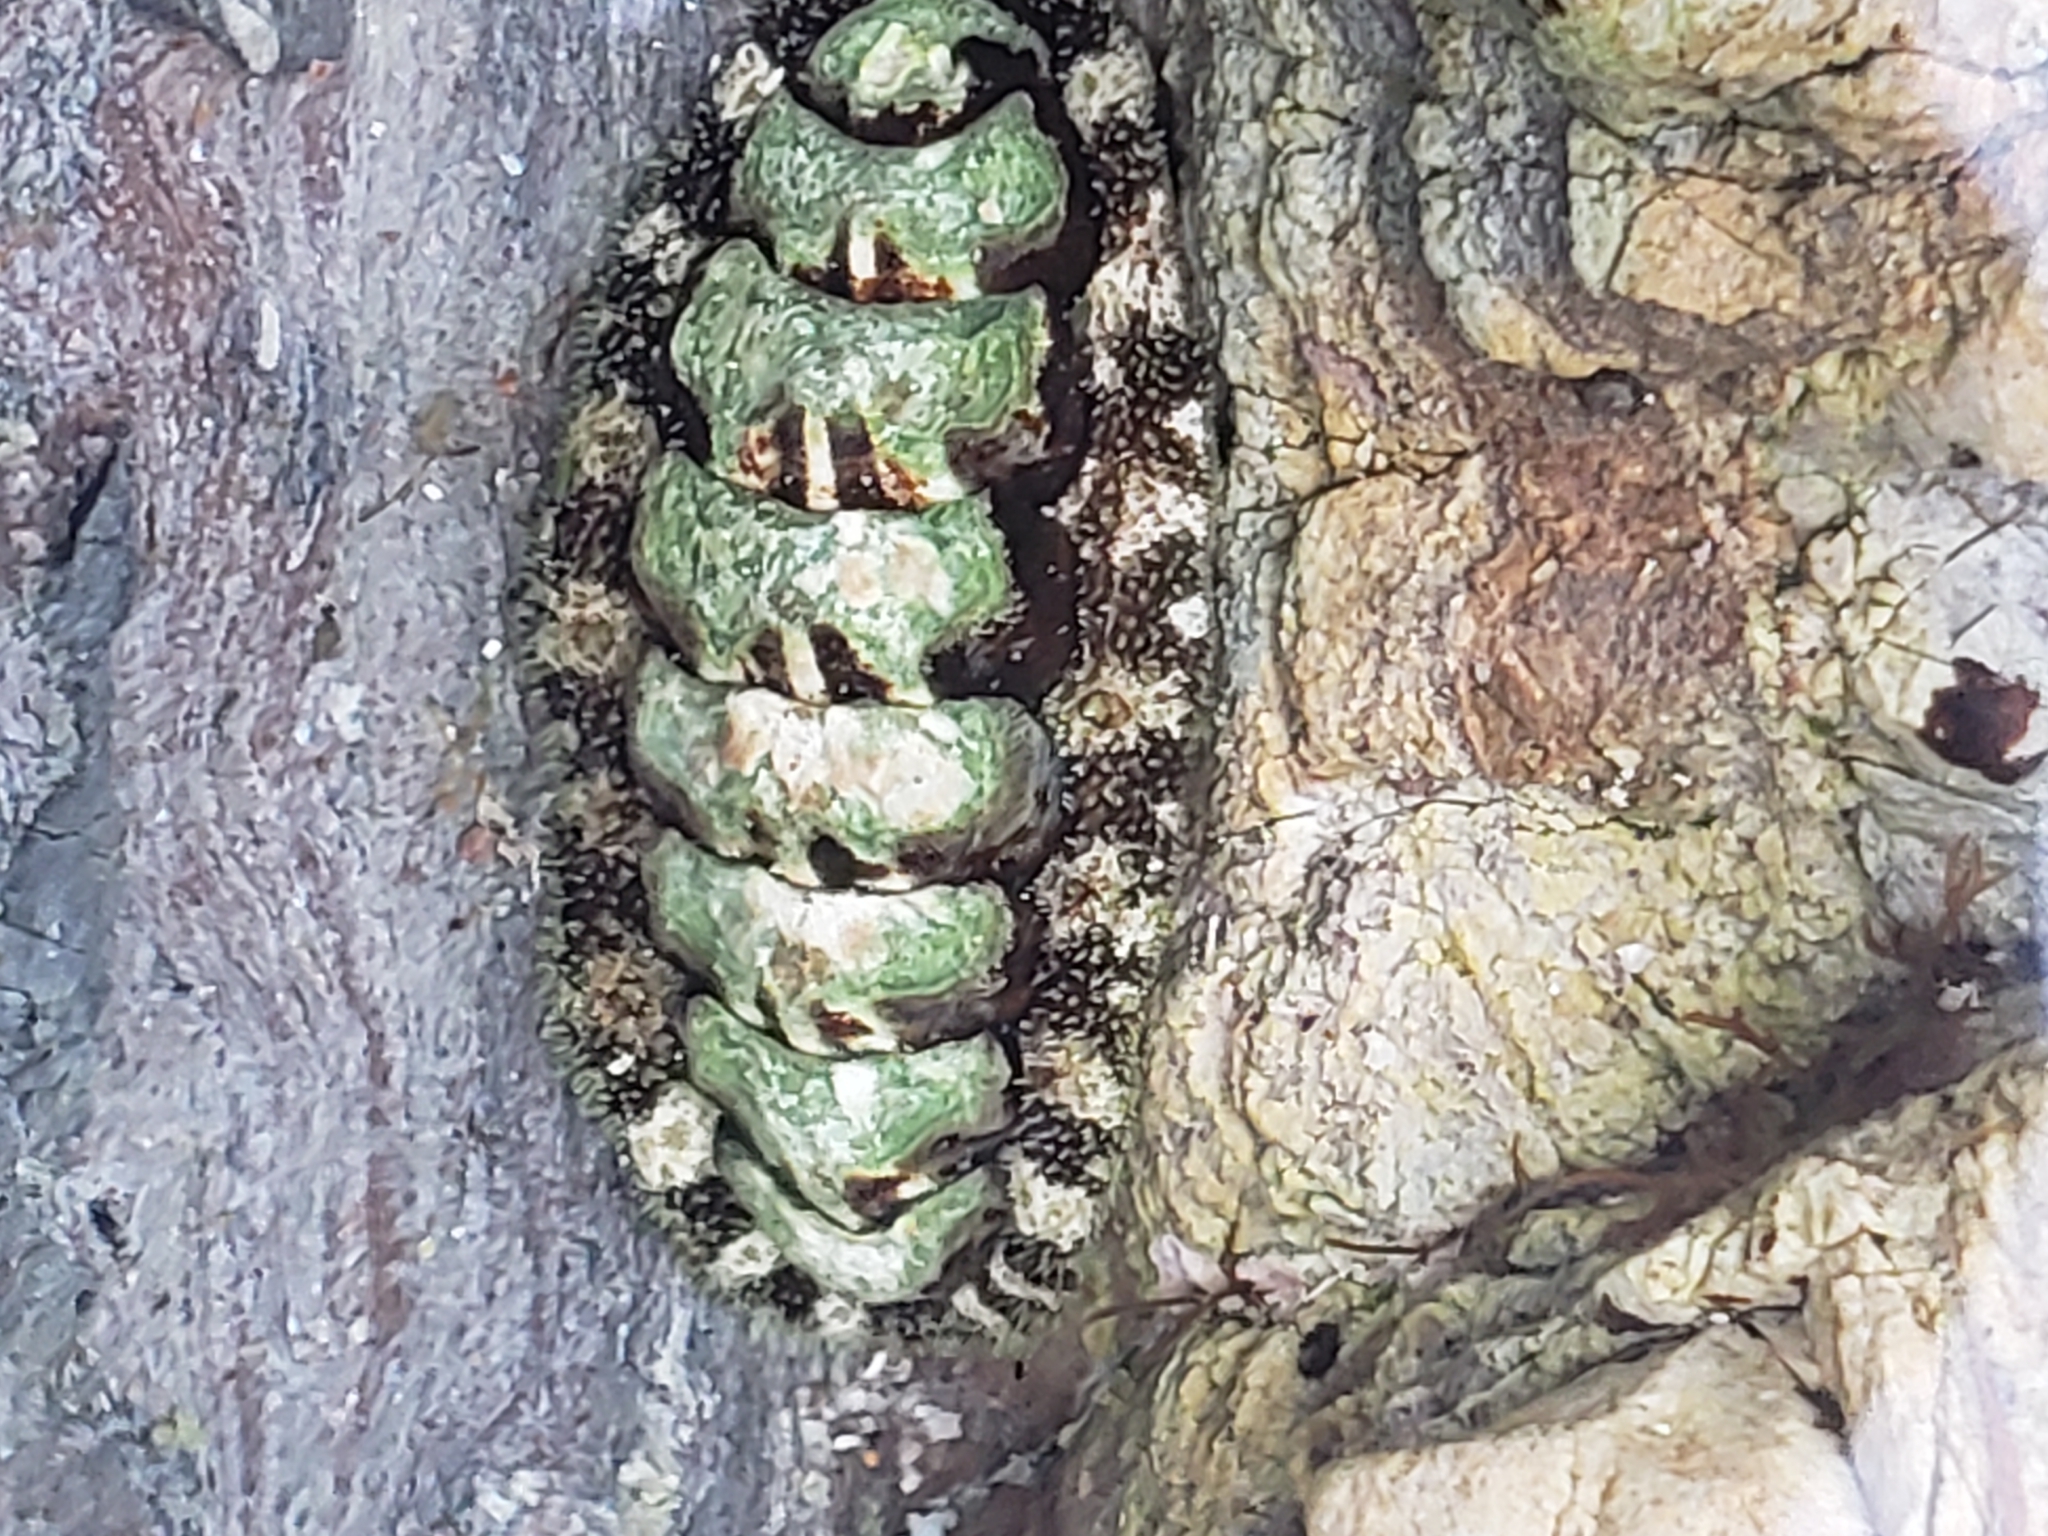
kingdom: Animalia
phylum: Mollusca
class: Polyplacophora
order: Chitonida
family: Tonicellidae
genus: Nuttallina
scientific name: Nuttallina californica
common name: California nuttall chiton
